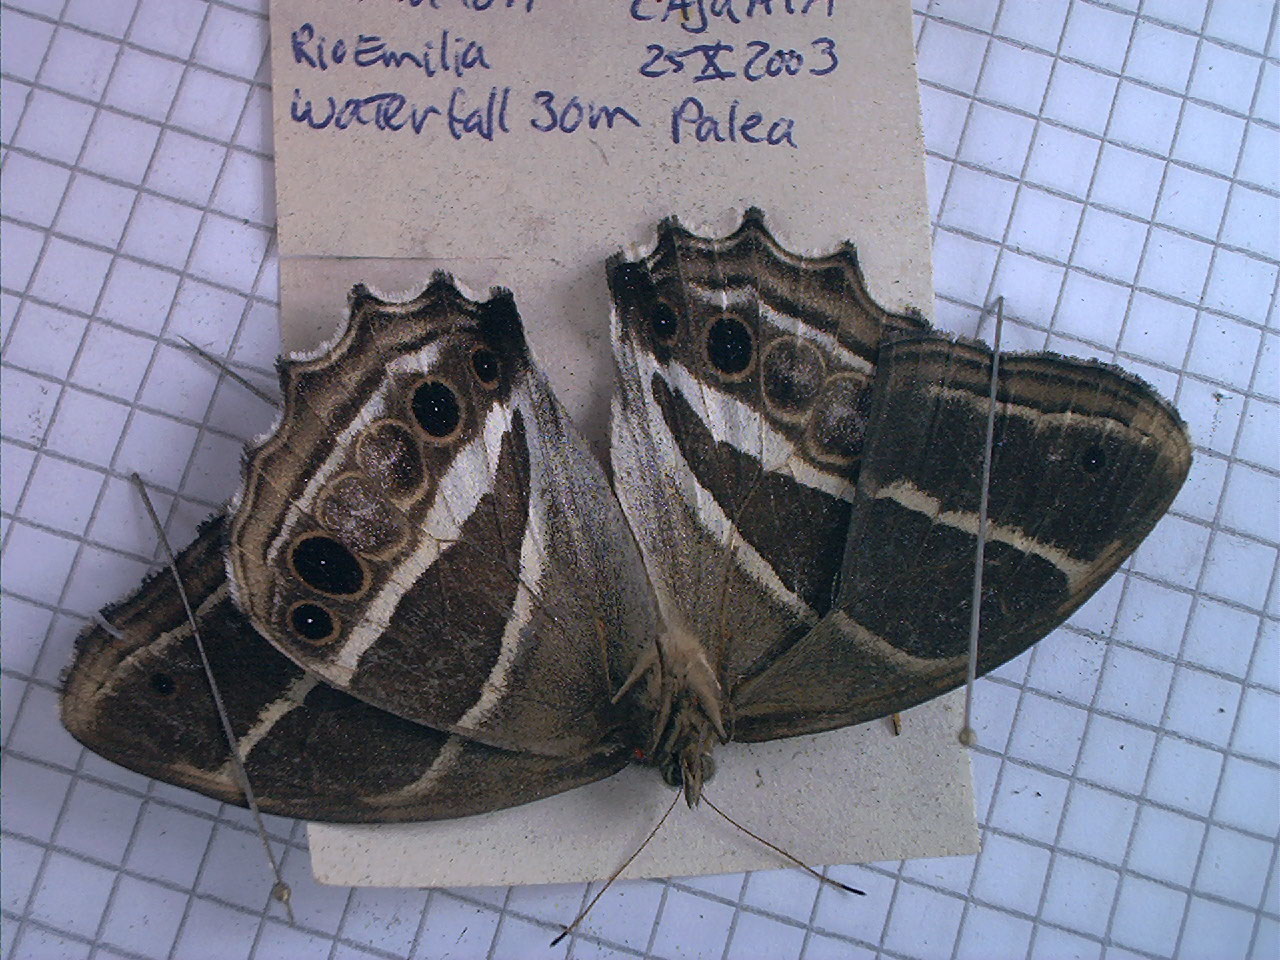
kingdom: Animalia
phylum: Arthropoda
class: Insecta
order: Lepidoptera
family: Nymphalidae
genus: Parataygetis
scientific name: Parataygetis albinotata
